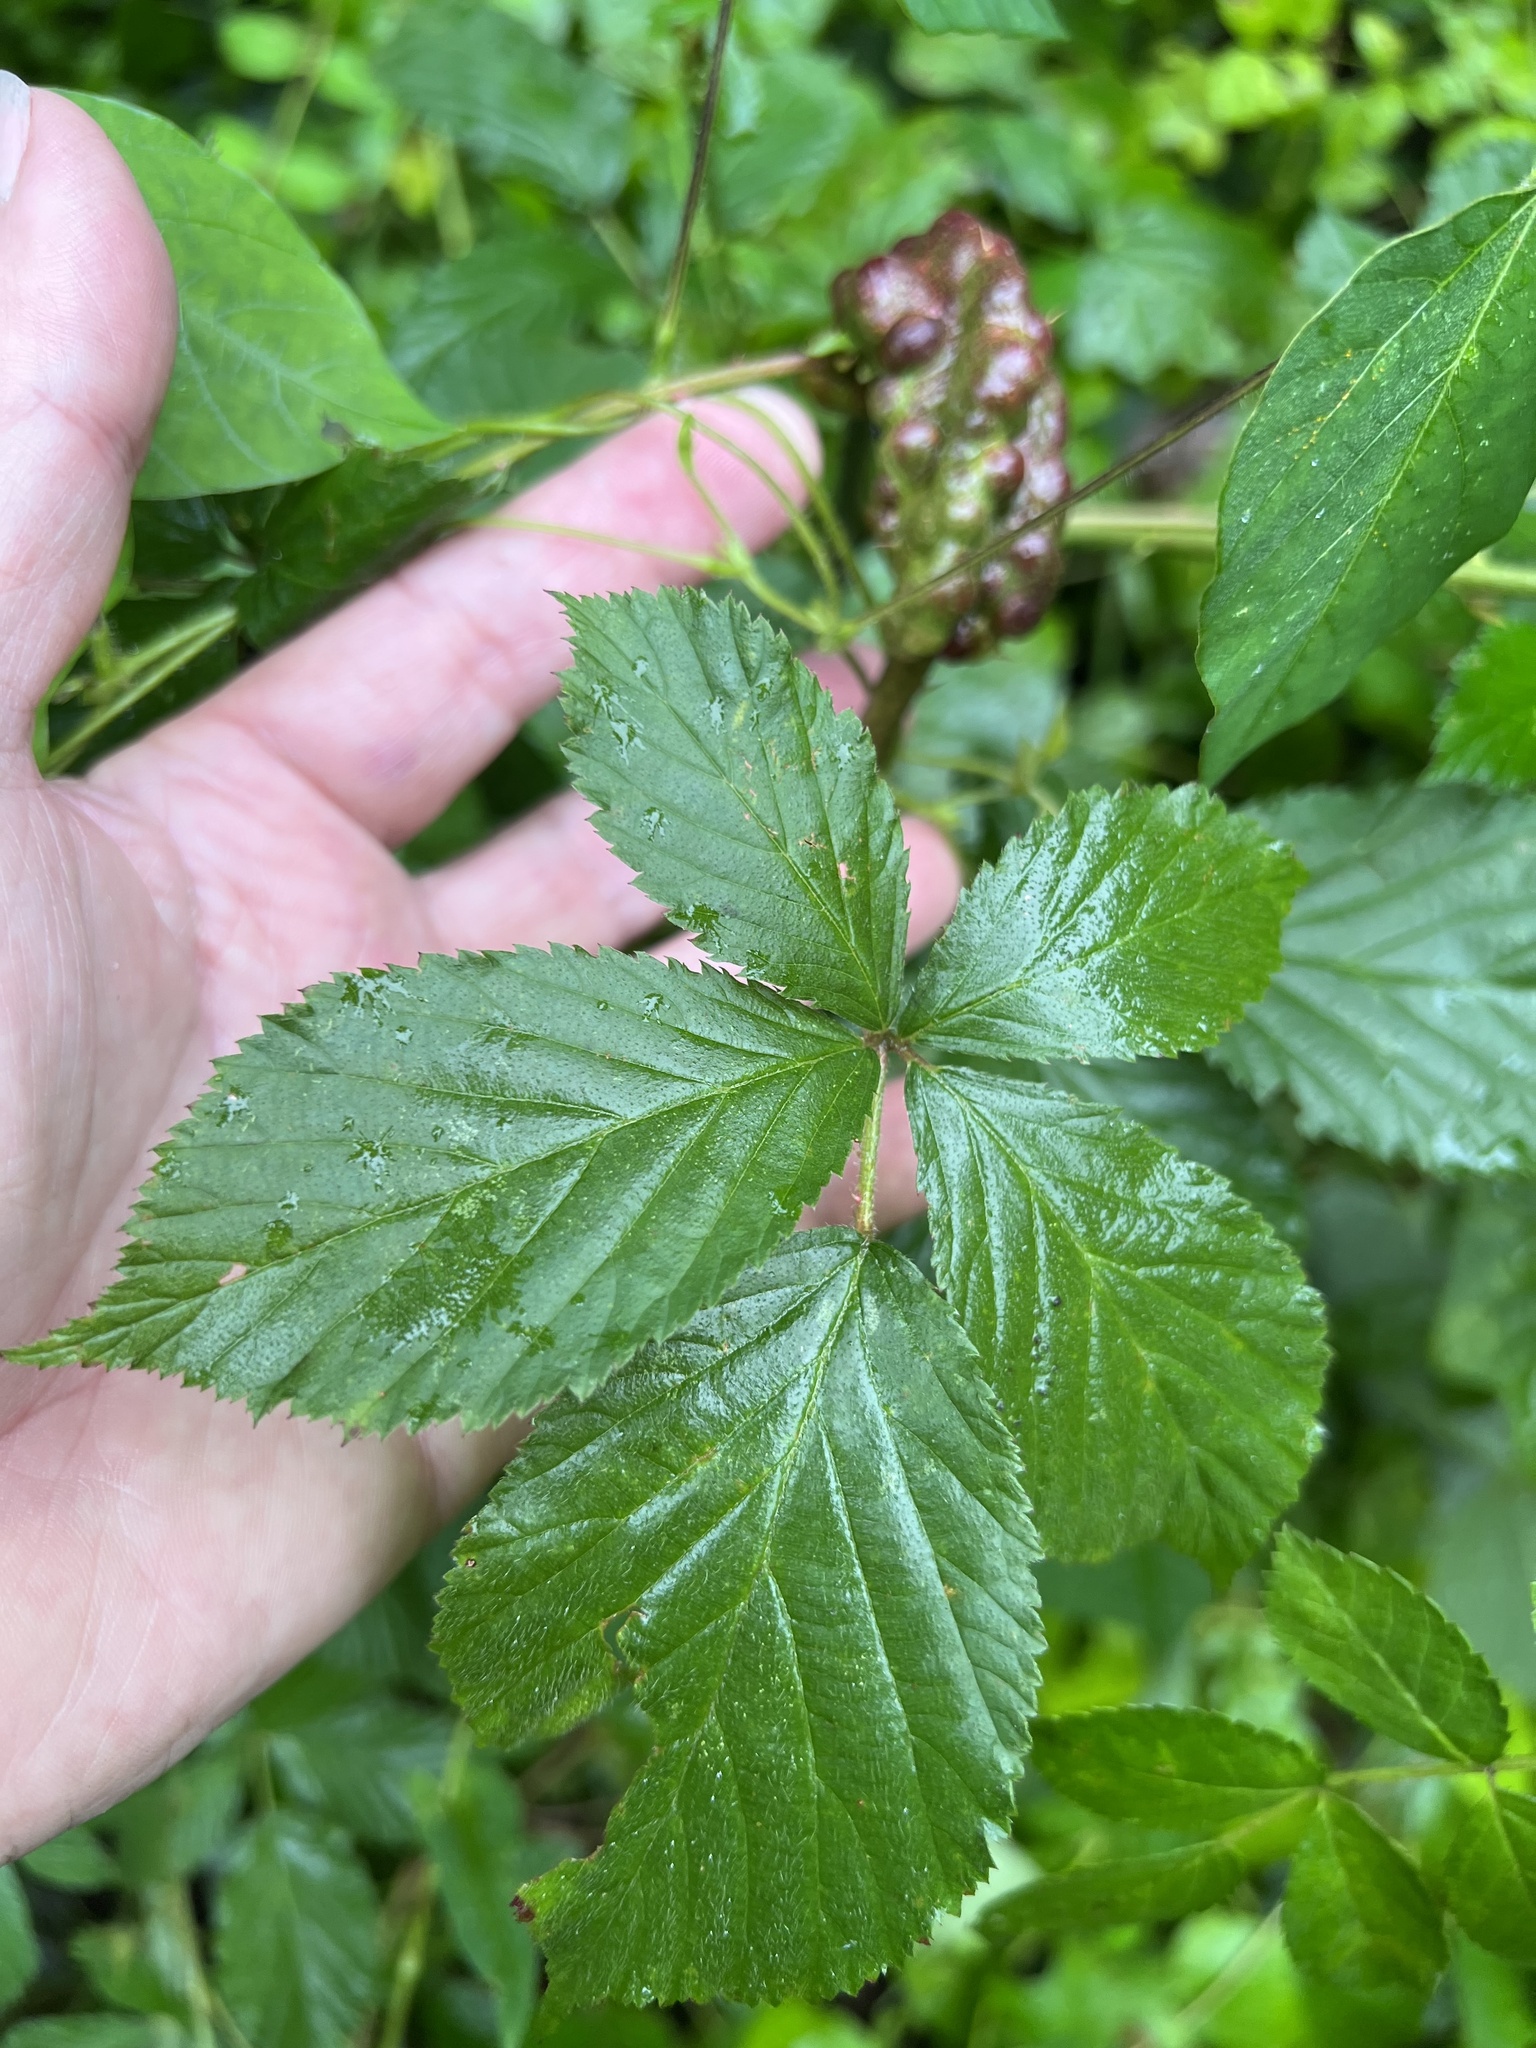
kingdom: Animalia
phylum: Arthropoda
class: Insecta
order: Hymenoptera
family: Cynipidae
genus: Diastrophus
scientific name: Diastrophus
